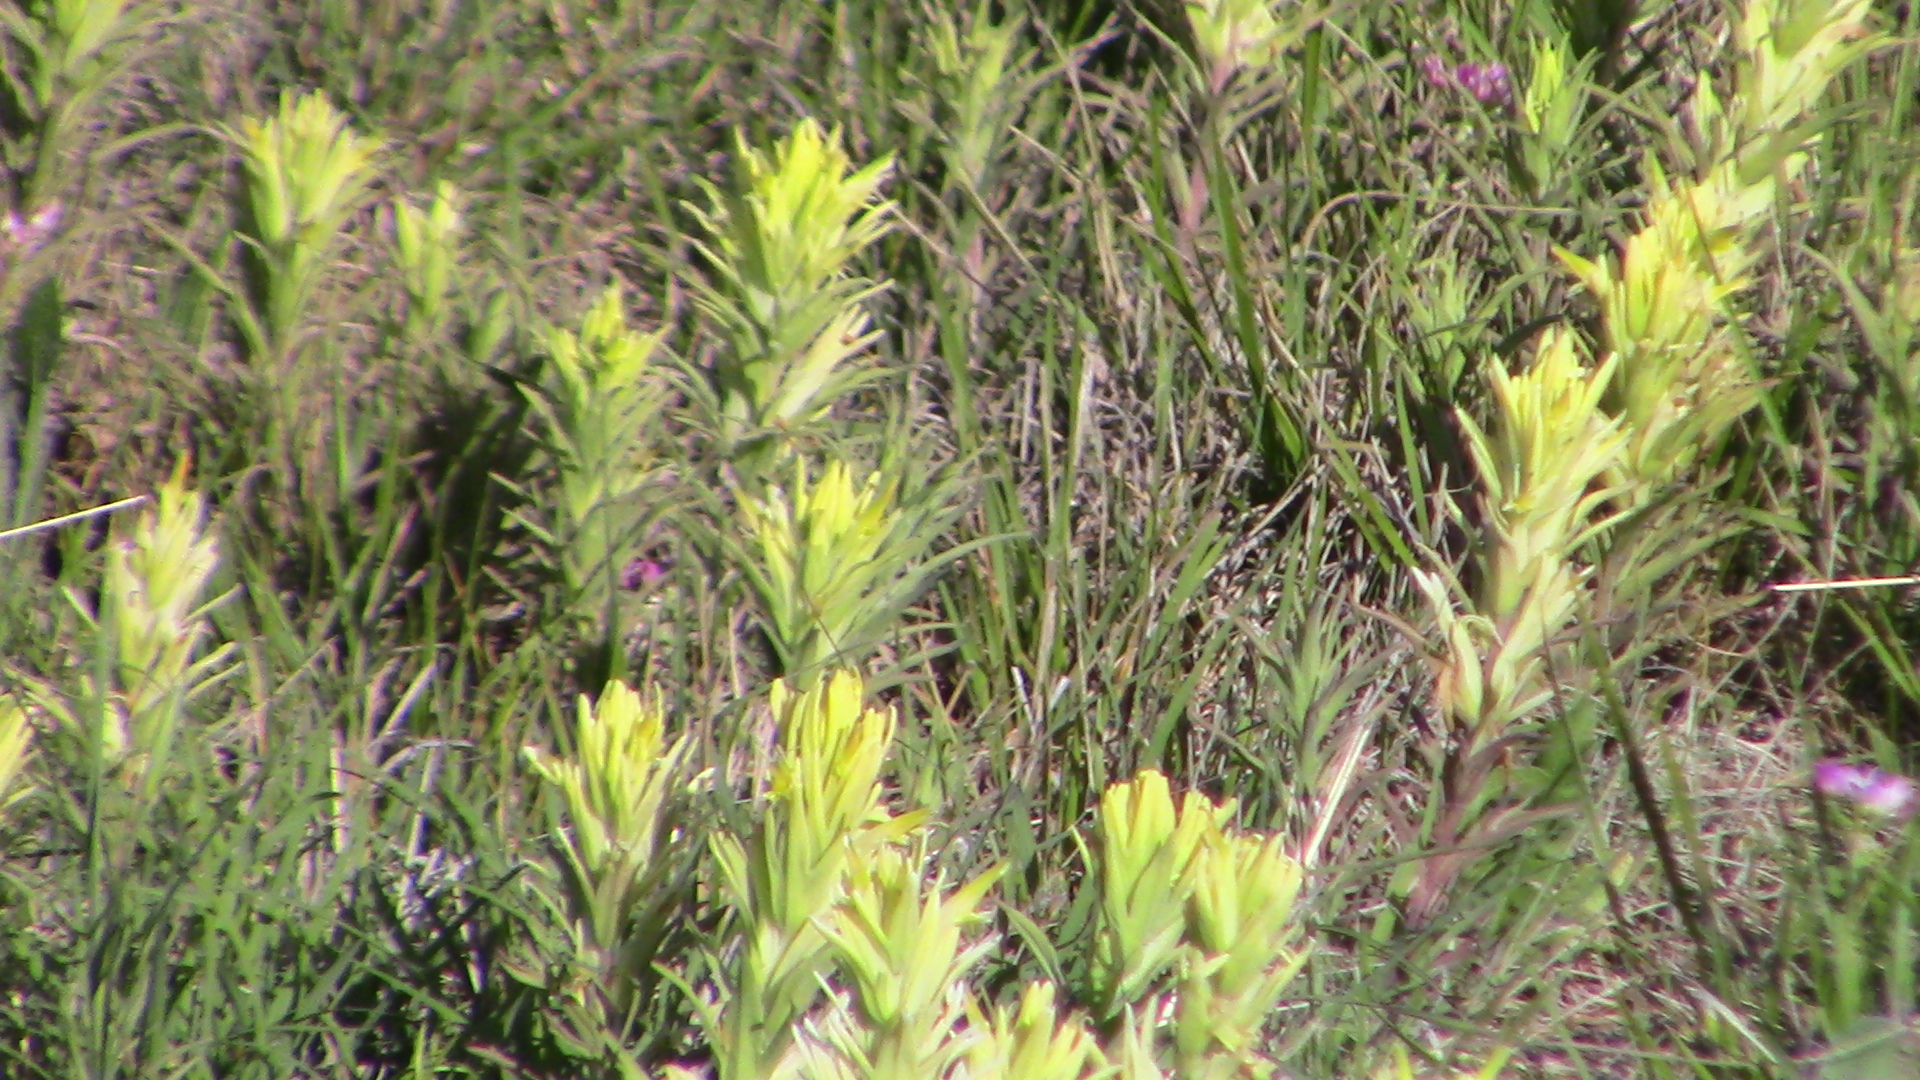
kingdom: Plantae
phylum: Tracheophyta
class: Magnoliopsida
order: Lamiales
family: Orobanchaceae
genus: Castilleja
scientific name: Castilleja citrina
